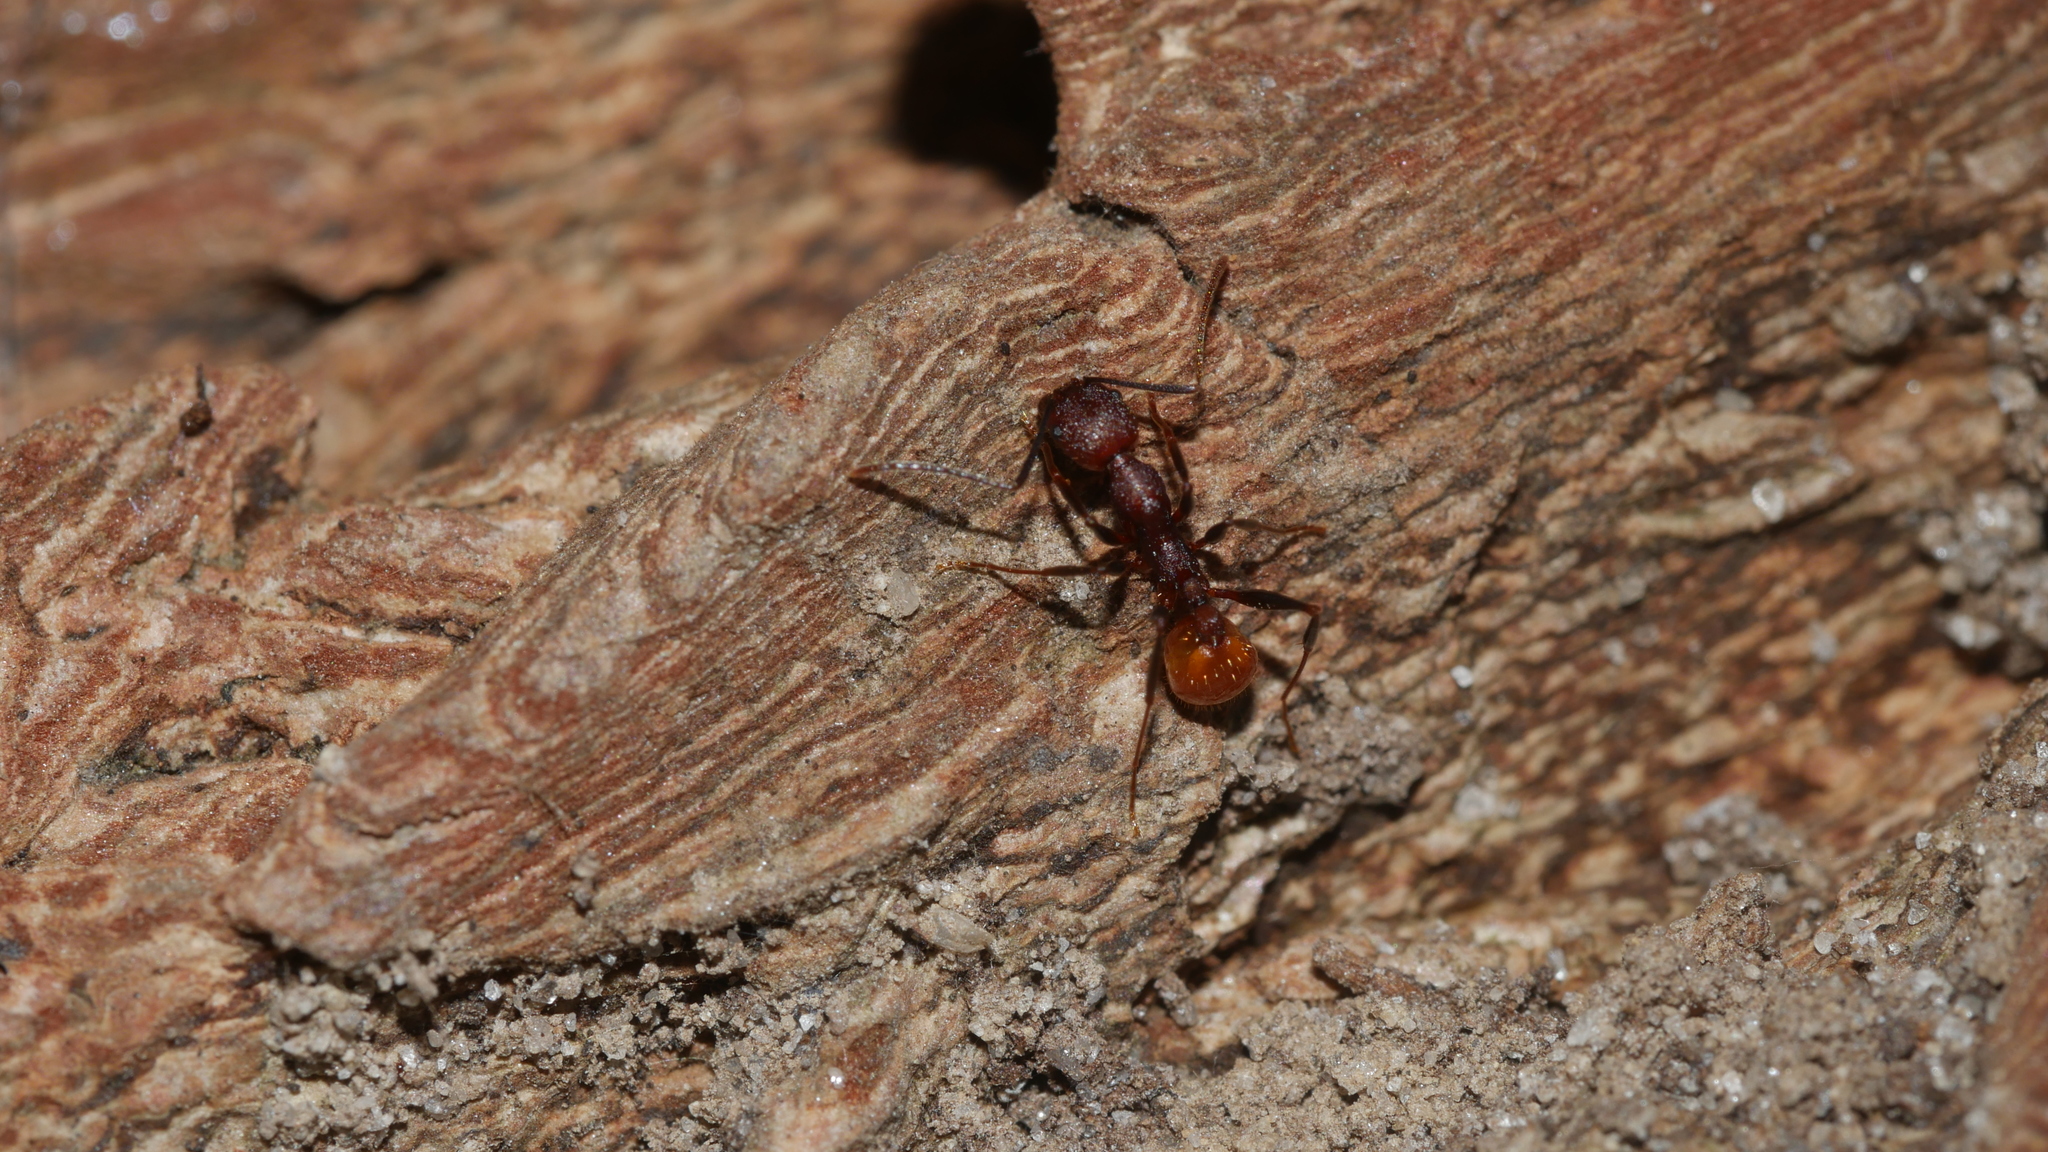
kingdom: Animalia
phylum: Arthropoda
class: Insecta
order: Hymenoptera
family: Formicidae
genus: Aphaenogaster
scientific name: Aphaenogaster lamellidens
